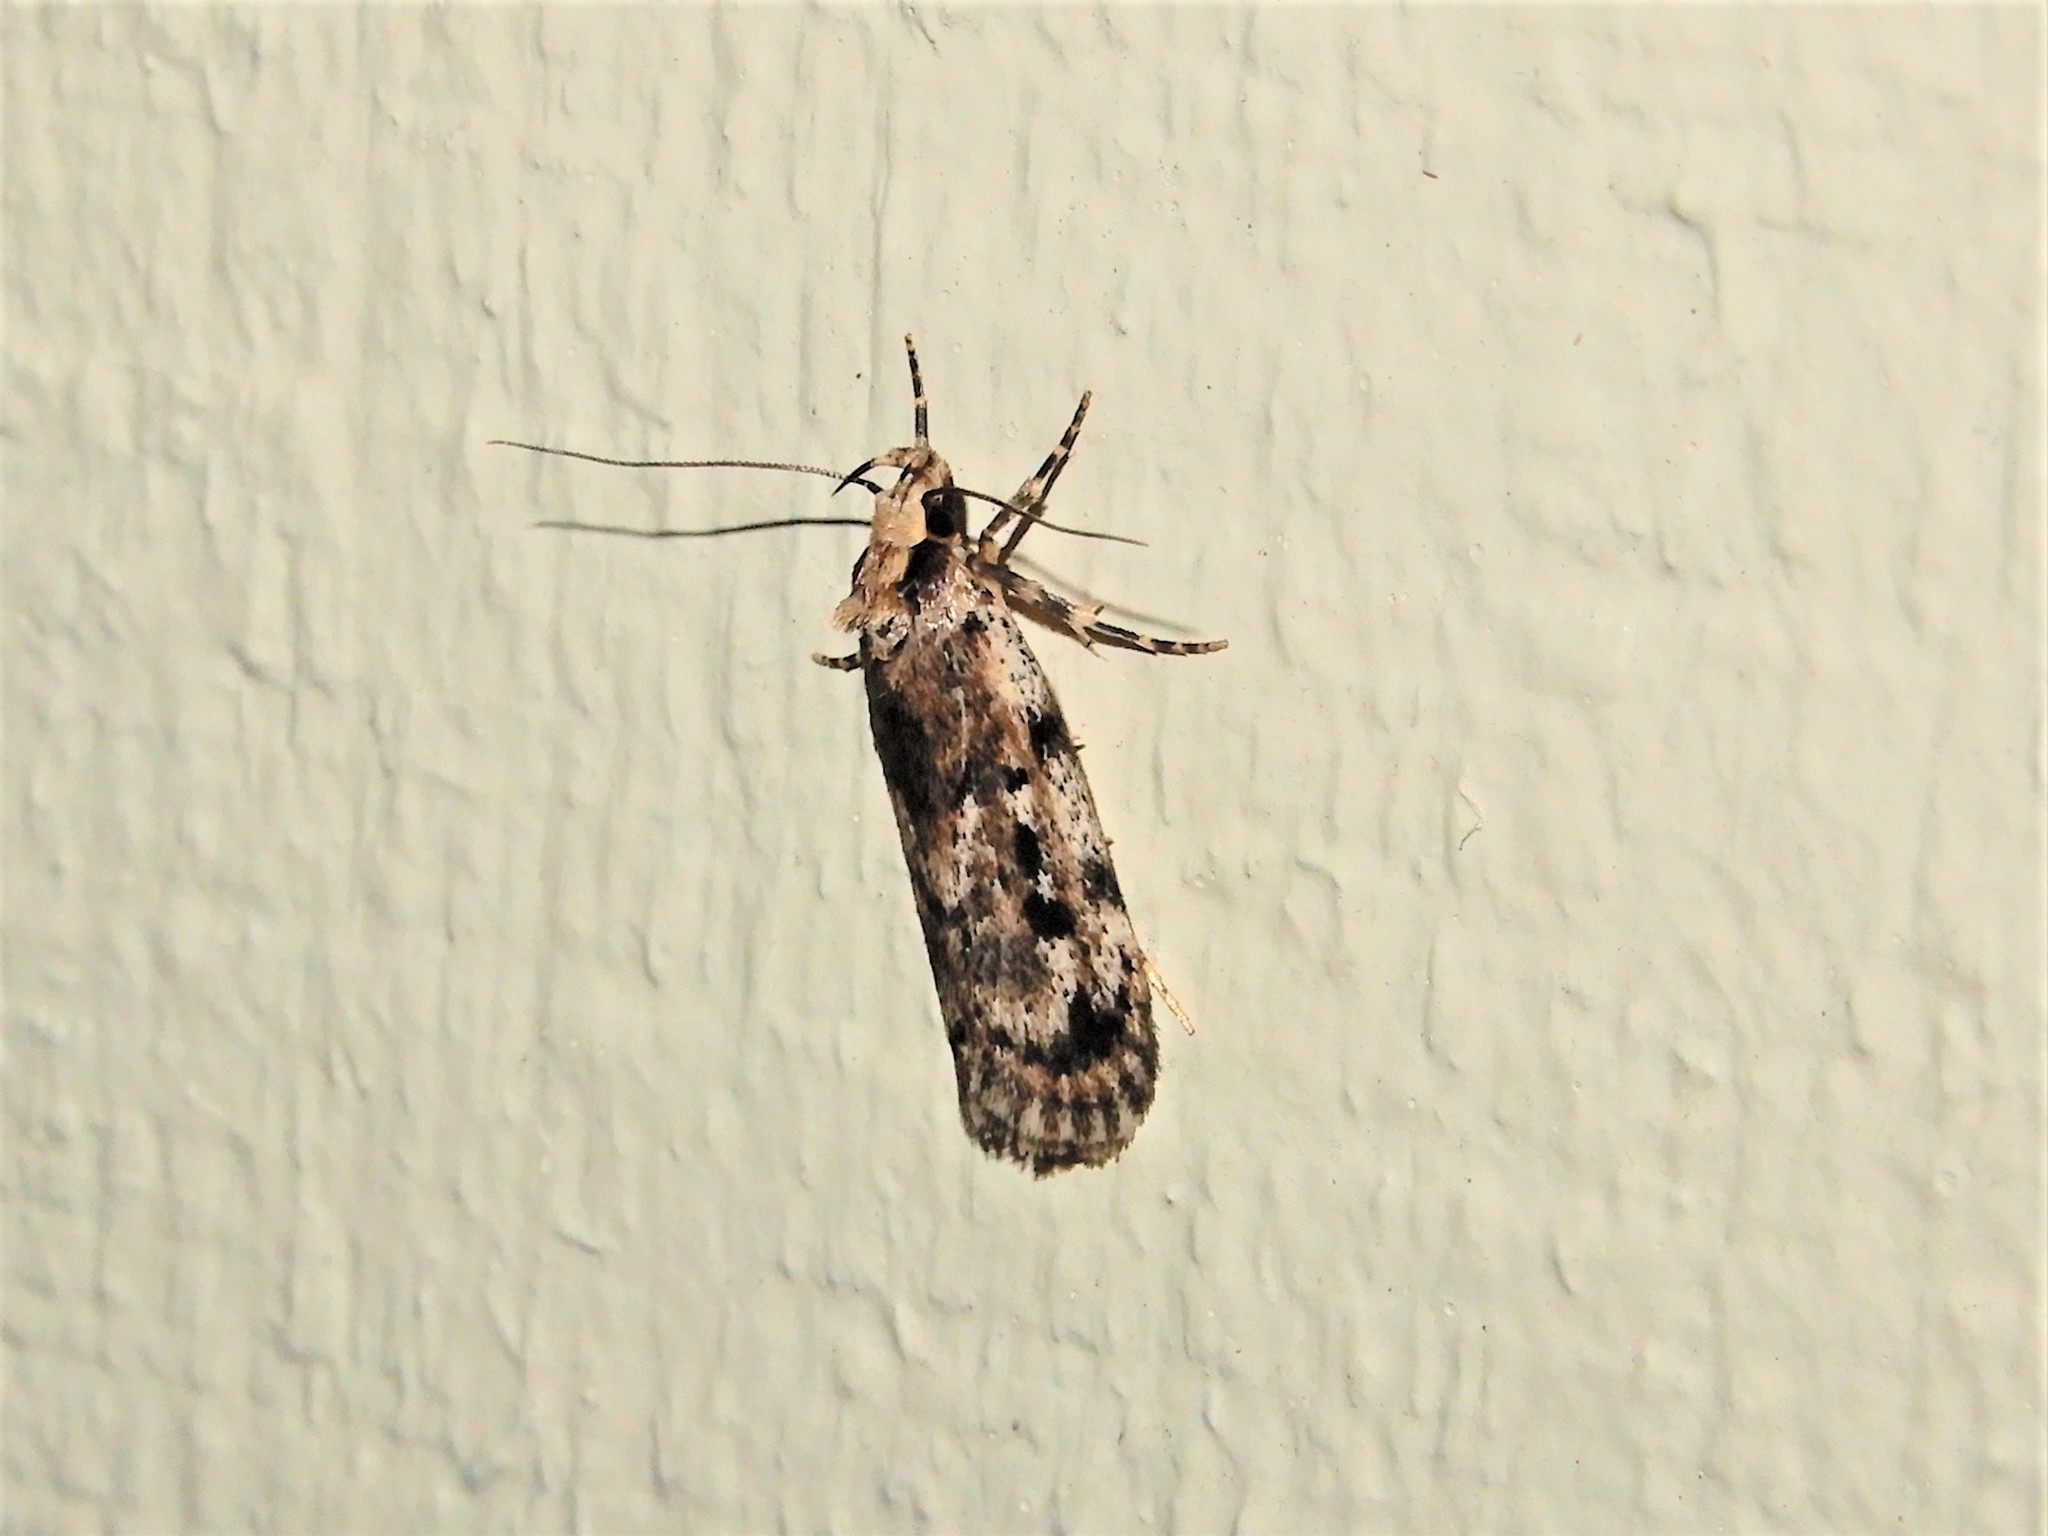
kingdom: Animalia
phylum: Arthropoda
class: Insecta
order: Lepidoptera
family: Oecophoridae
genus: Barea
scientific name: Barea exarcha
